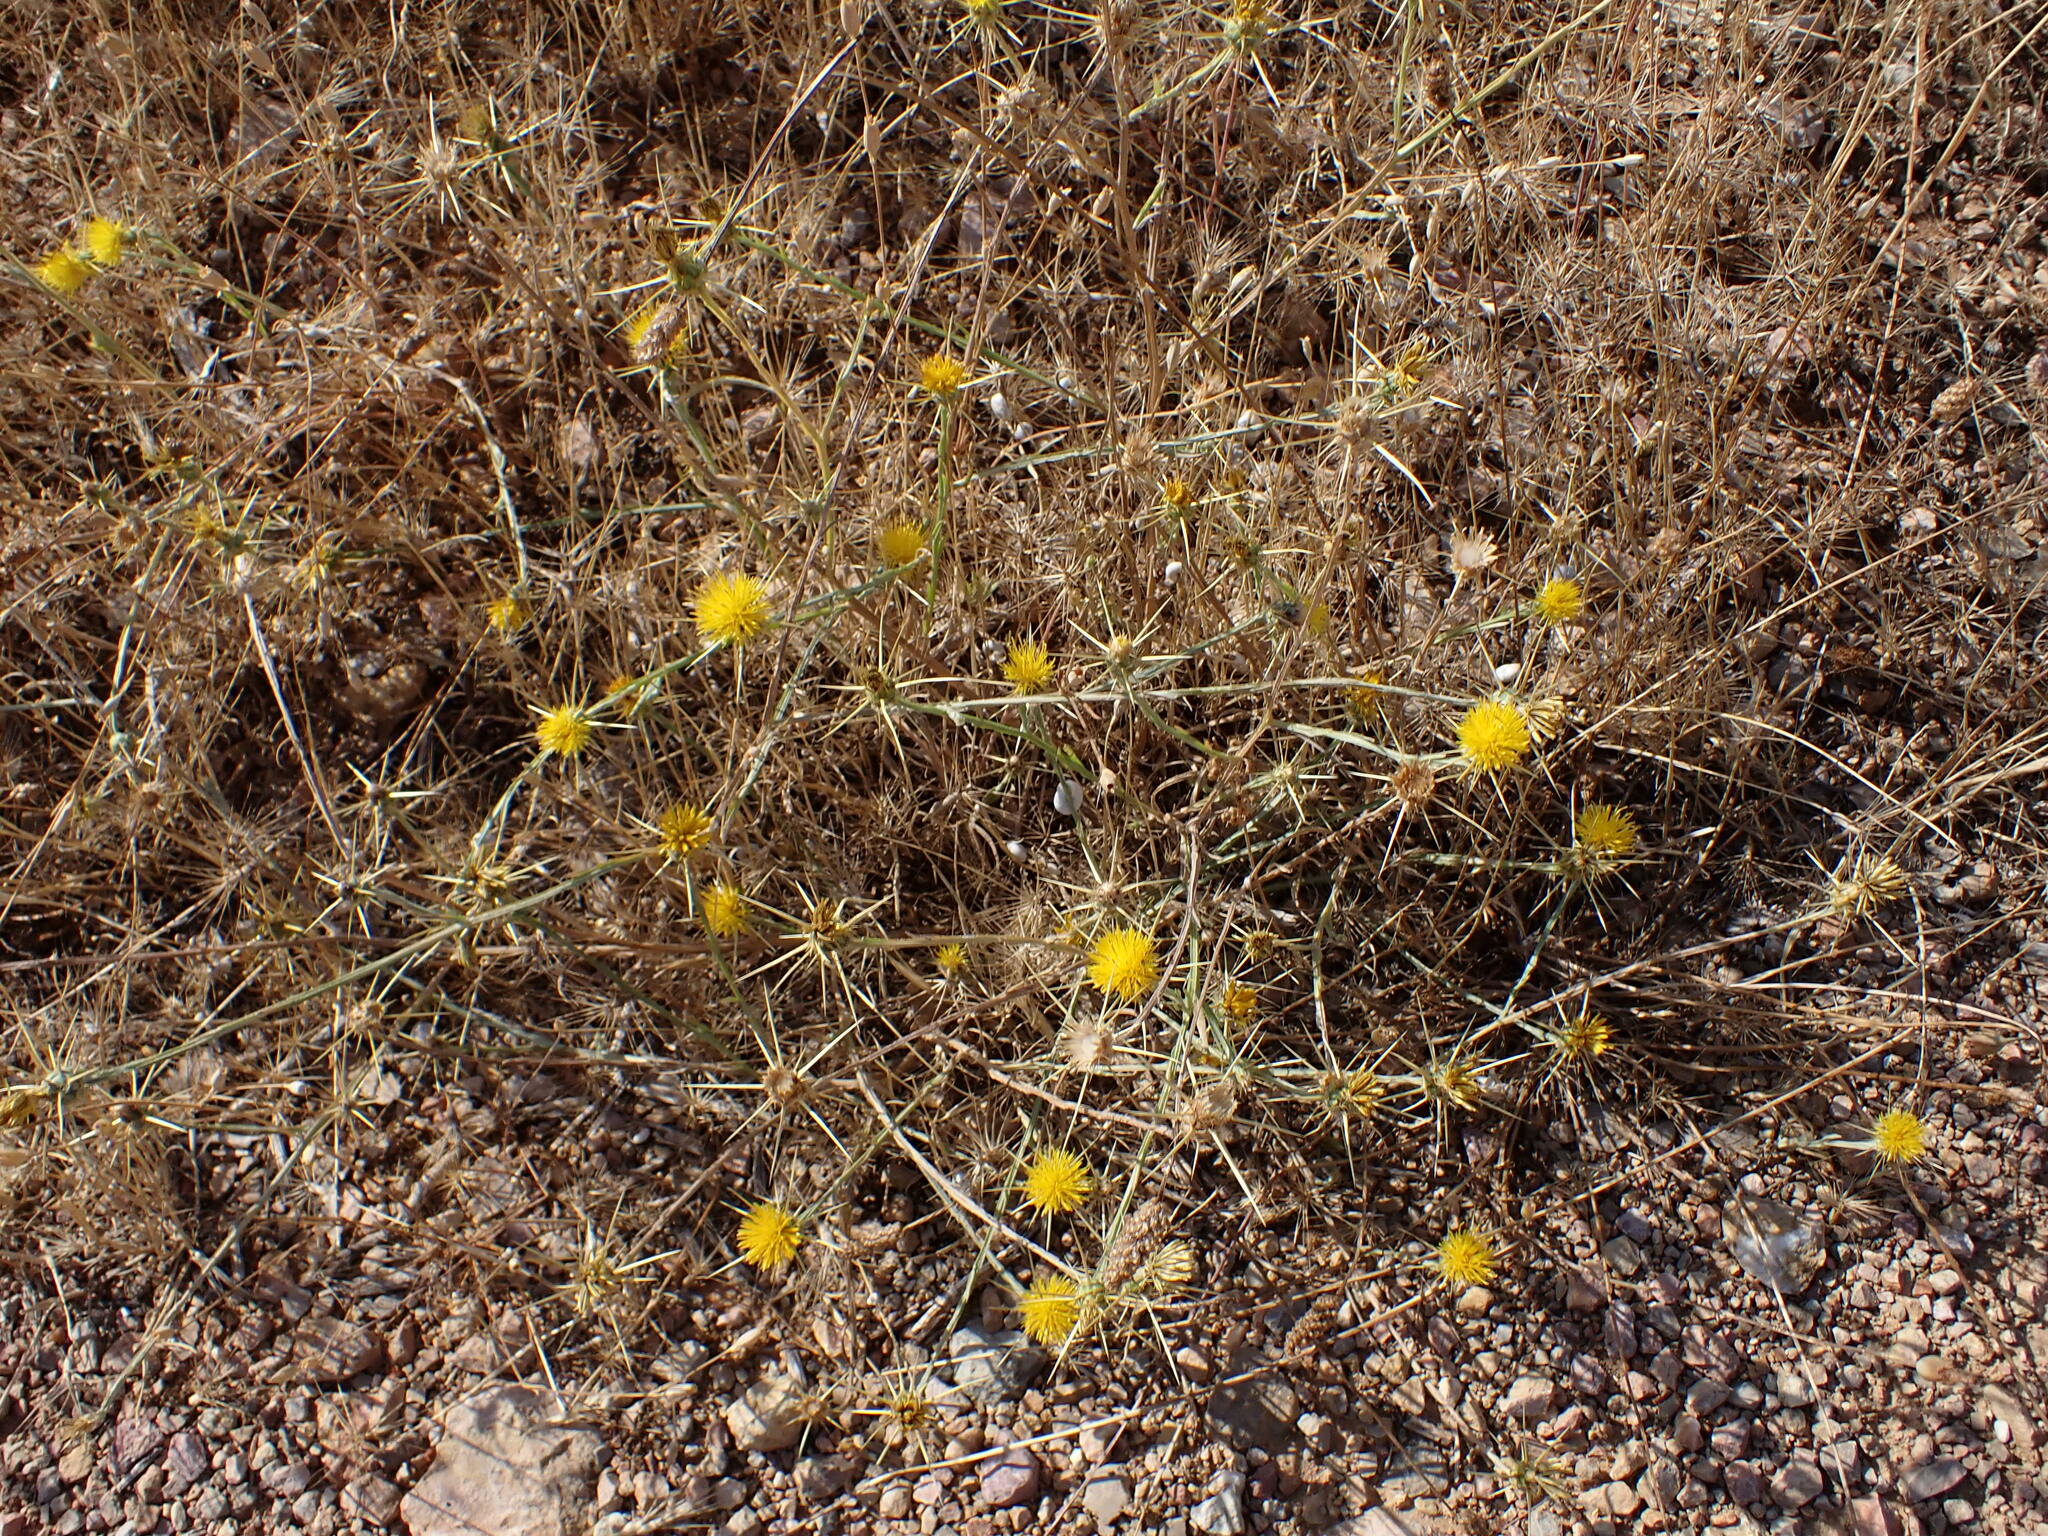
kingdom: Plantae
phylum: Tracheophyta
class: Magnoliopsida
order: Asterales
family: Asteraceae
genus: Centaurea
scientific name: Centaurea solstitialis
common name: Yellow star-thistle
